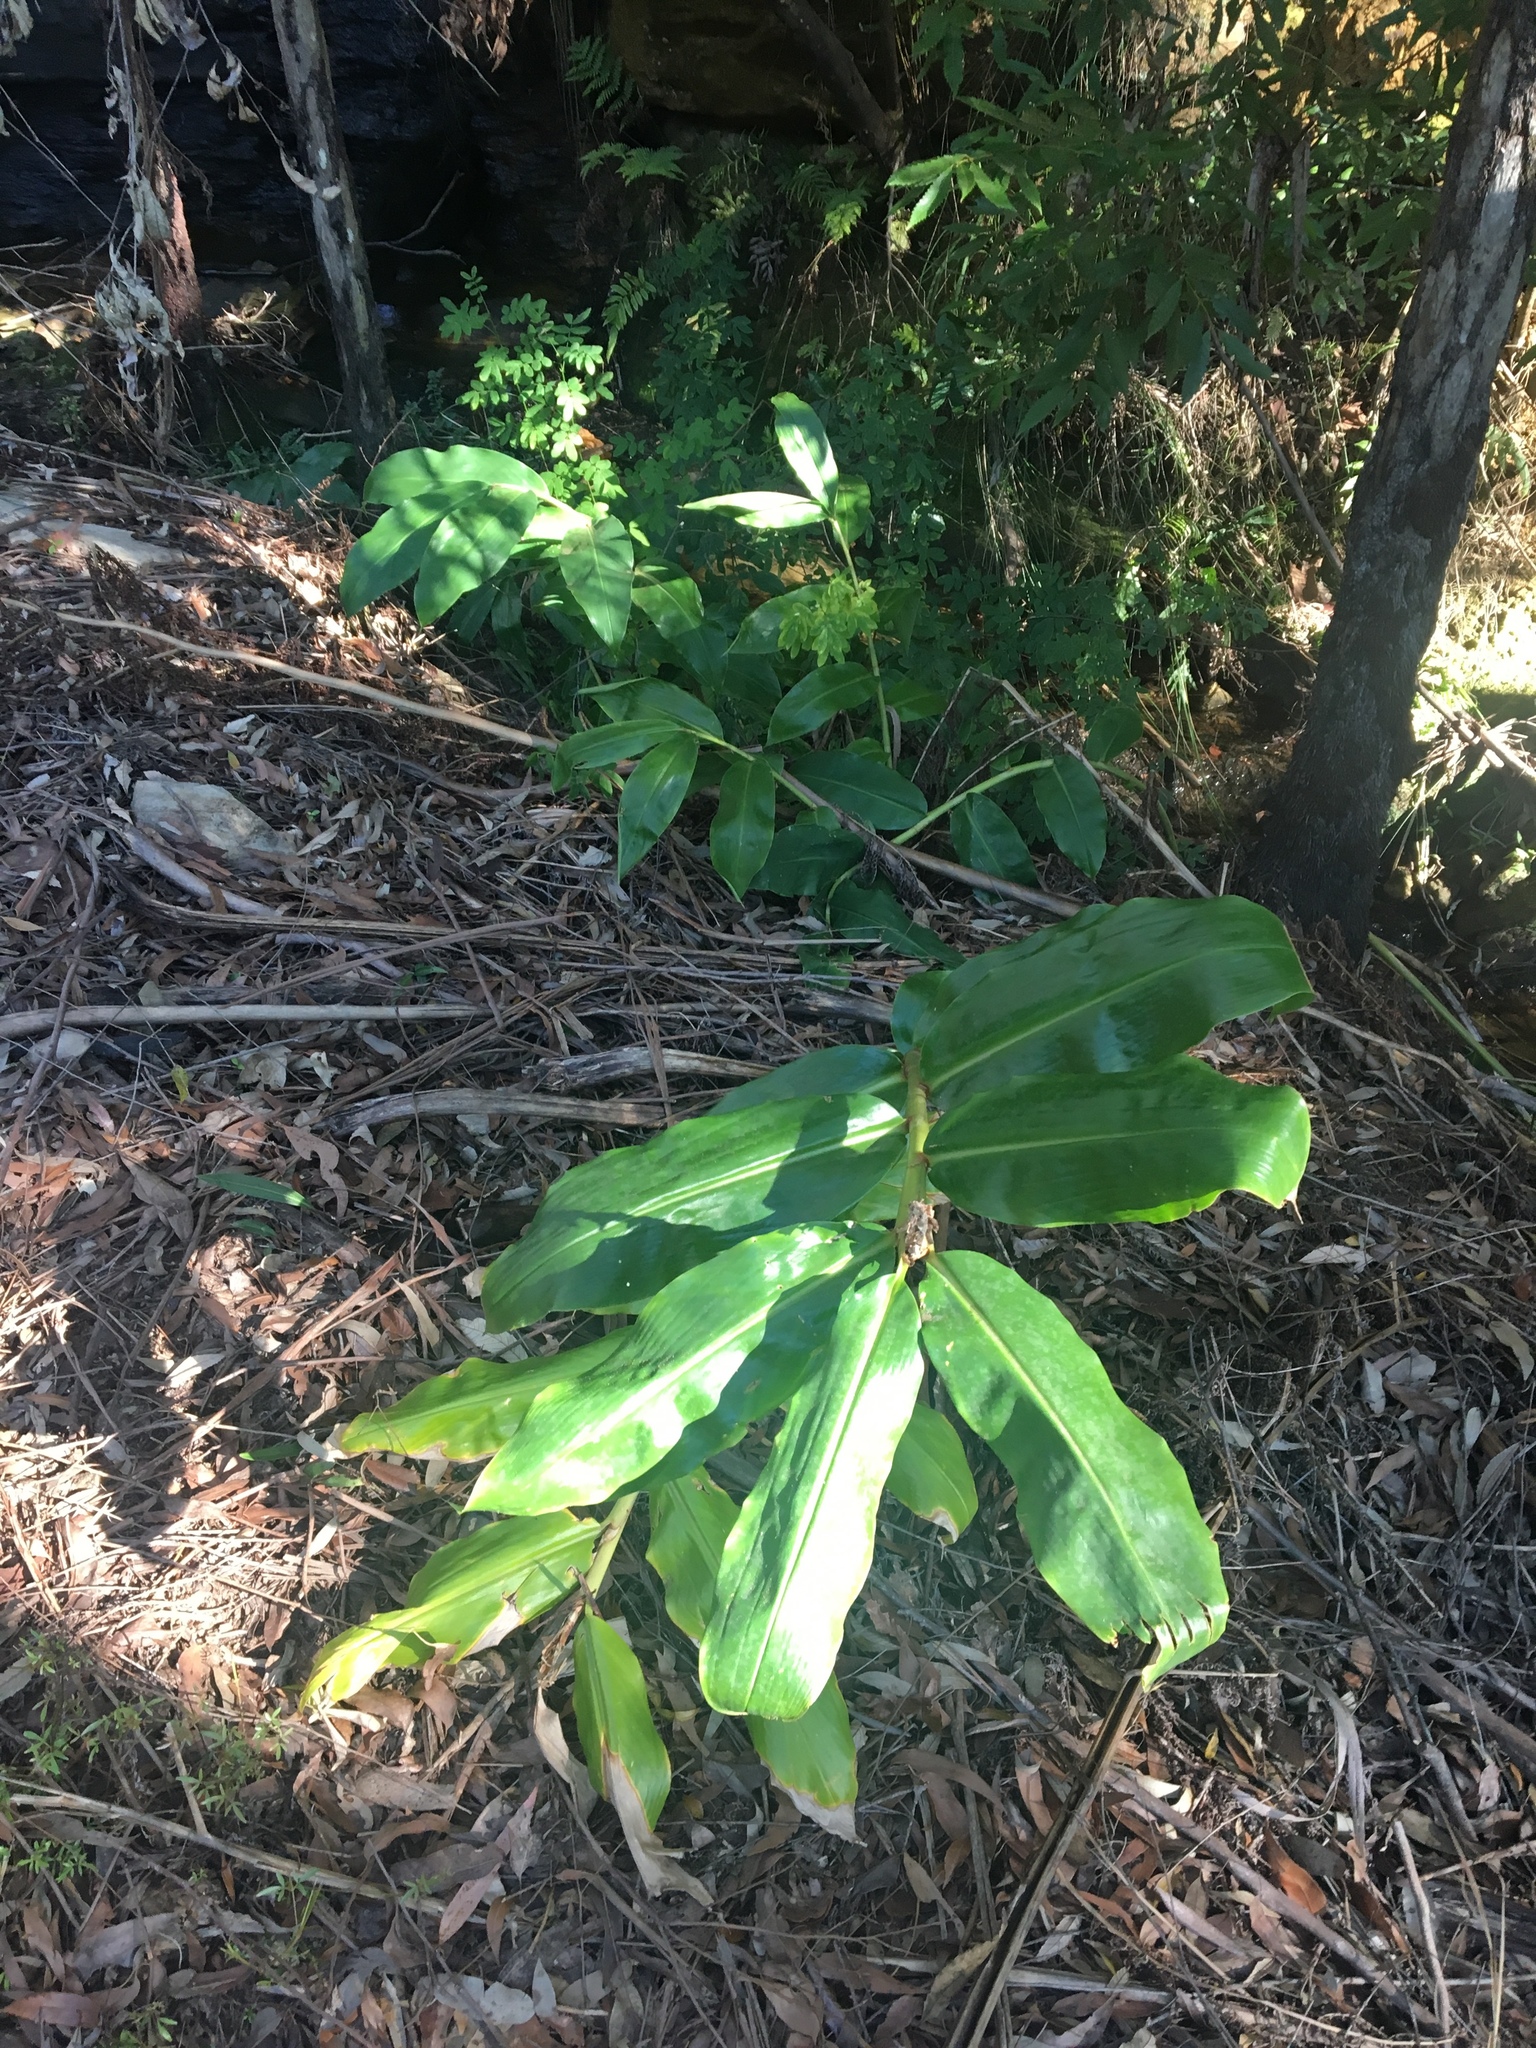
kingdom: Plantae
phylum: Tracheophyta
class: Liliopsida
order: Zingiberales
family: Zingiberaceae
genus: Hedychium
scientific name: Hedychium gardnerianum
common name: Himalayan ginger
